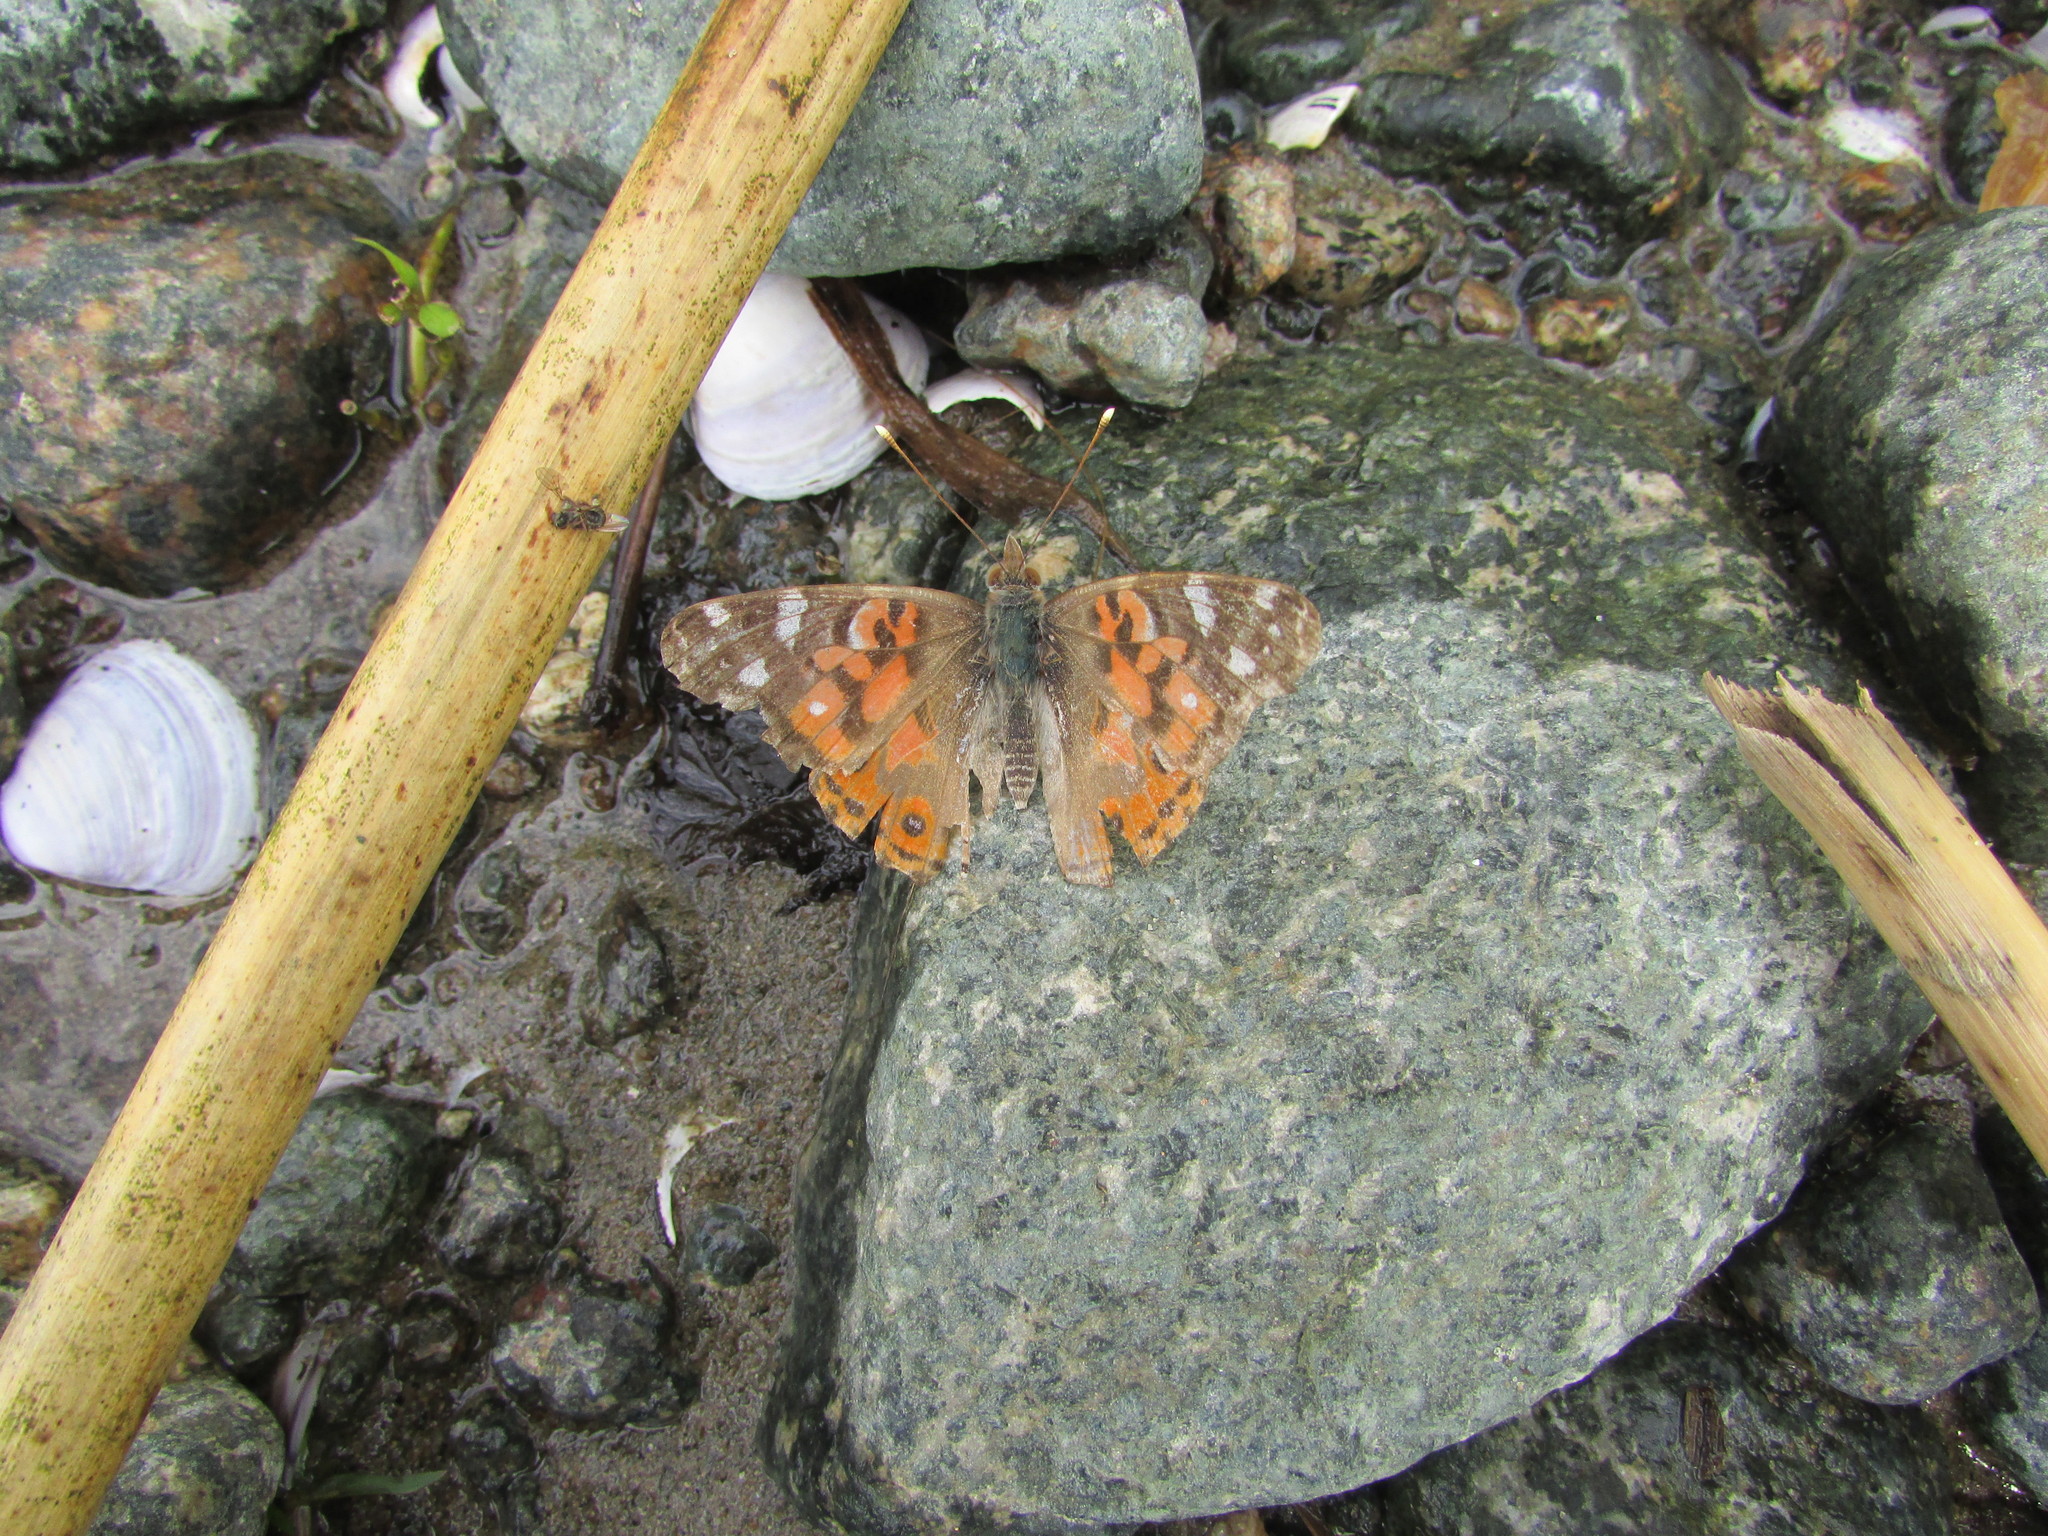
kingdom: Animalia
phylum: Arthropoda
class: Insecta
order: Lepidoptera
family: Nymphalidae
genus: Vanessa
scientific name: Vanessa braziliensis
